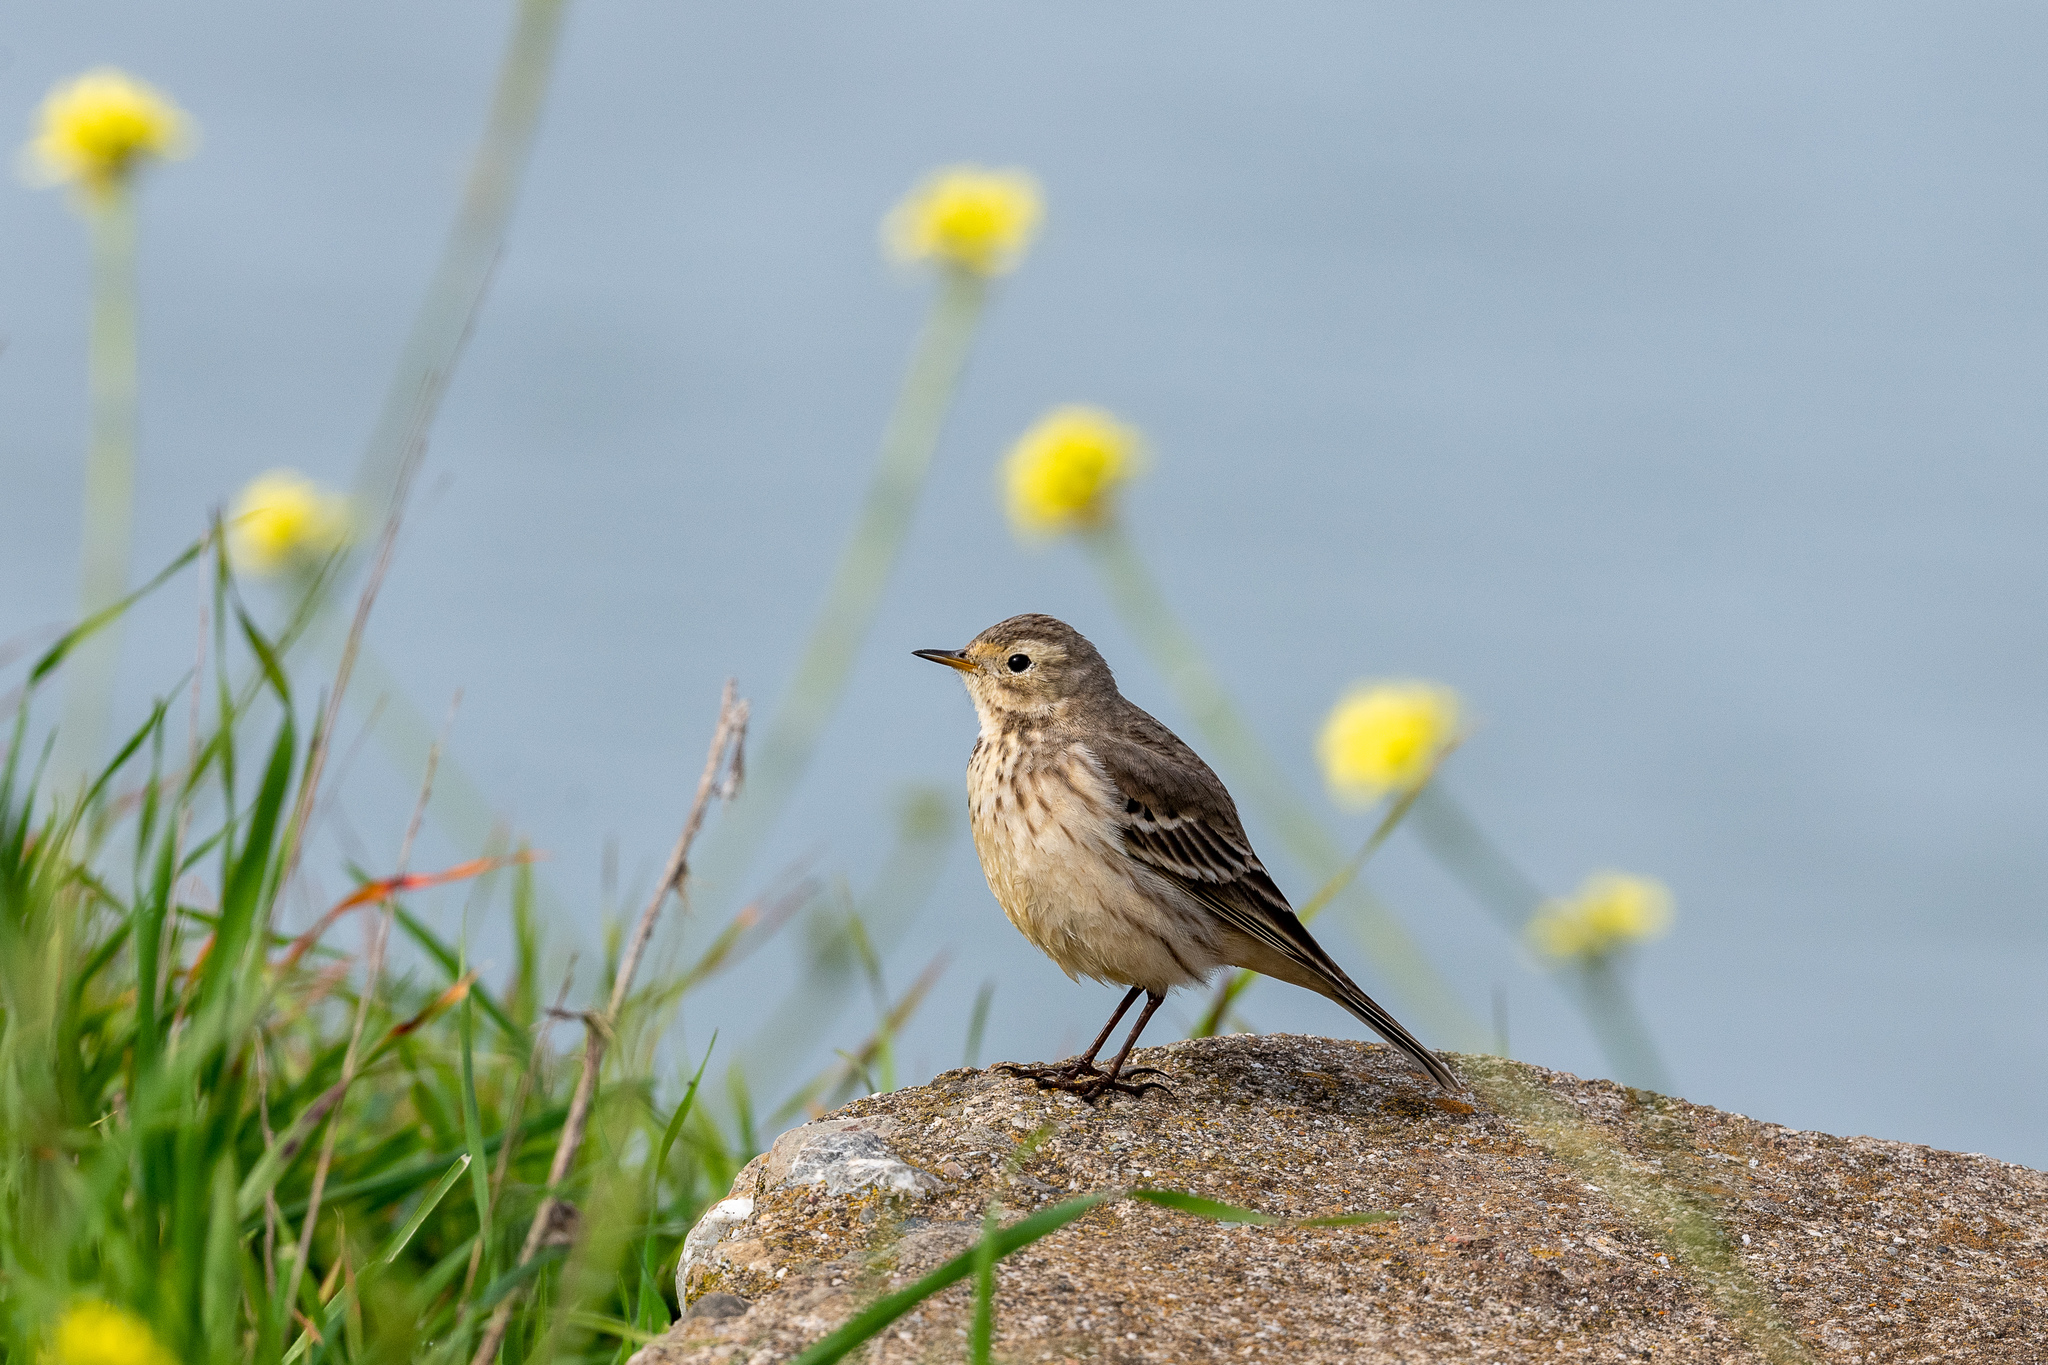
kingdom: Animalia
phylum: Chordata
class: Aves
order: Passeriformes
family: Motacillidae
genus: Anthus
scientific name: Anthus rubescens
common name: Buff-bellied pipit
